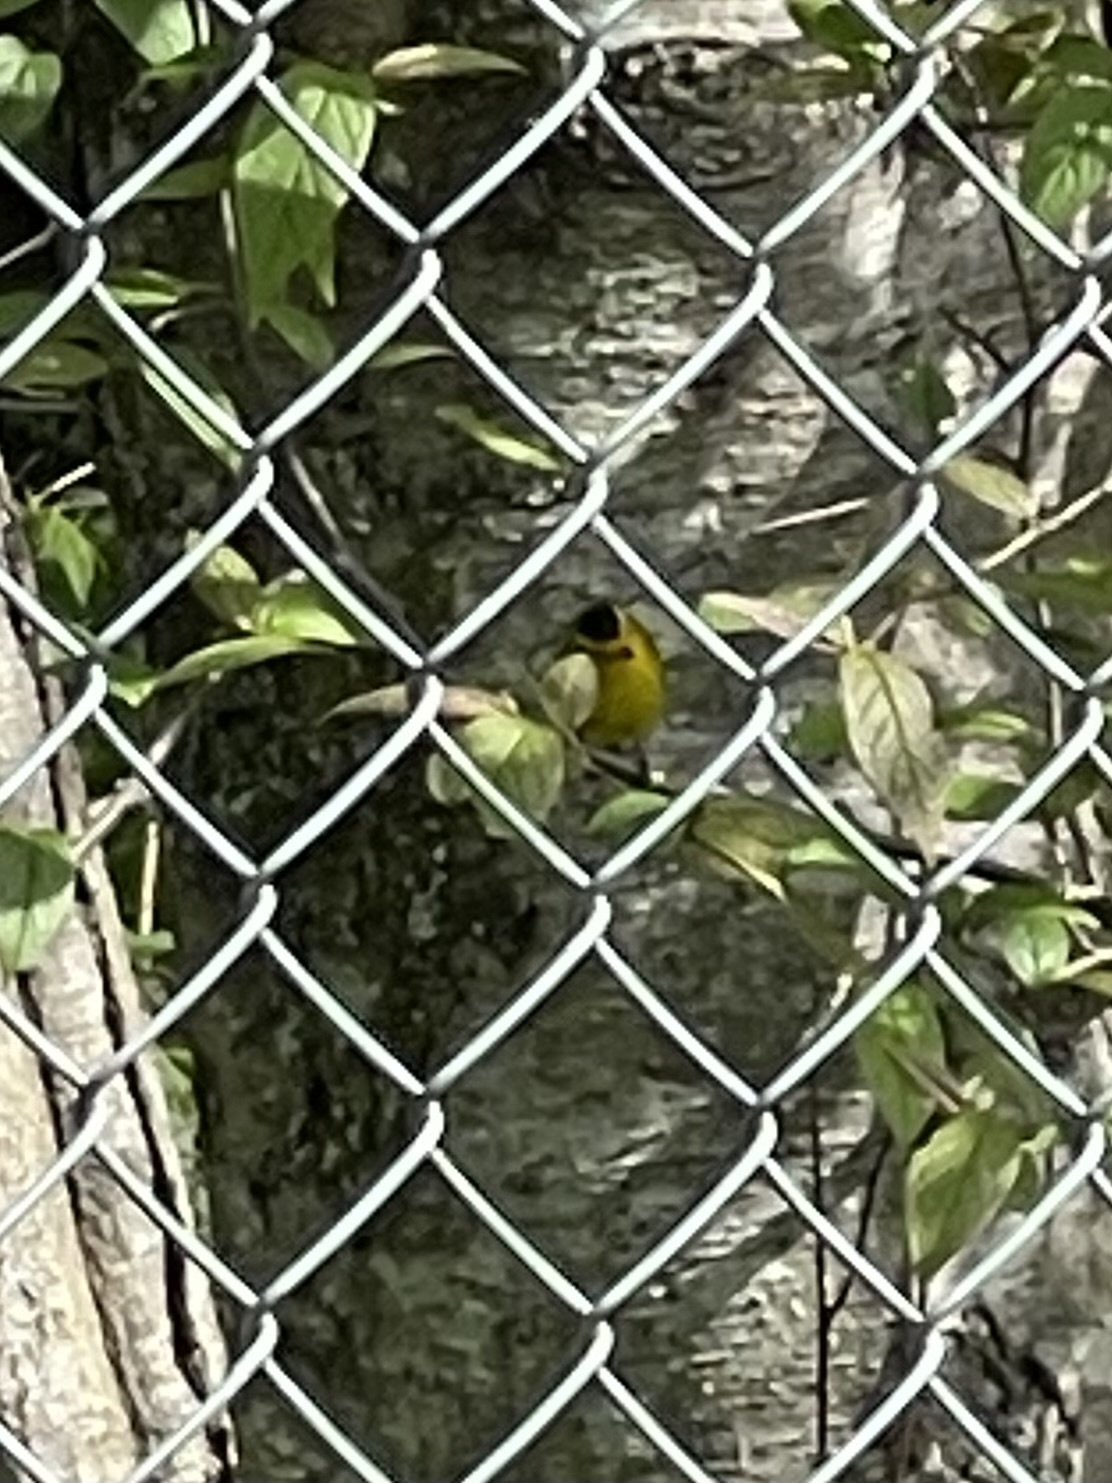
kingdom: Animalia
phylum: Chordata
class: Aves
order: Passeriformes
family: Parulidae
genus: Cardellina
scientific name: Cardellina pusilla
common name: Wilson's warbler
